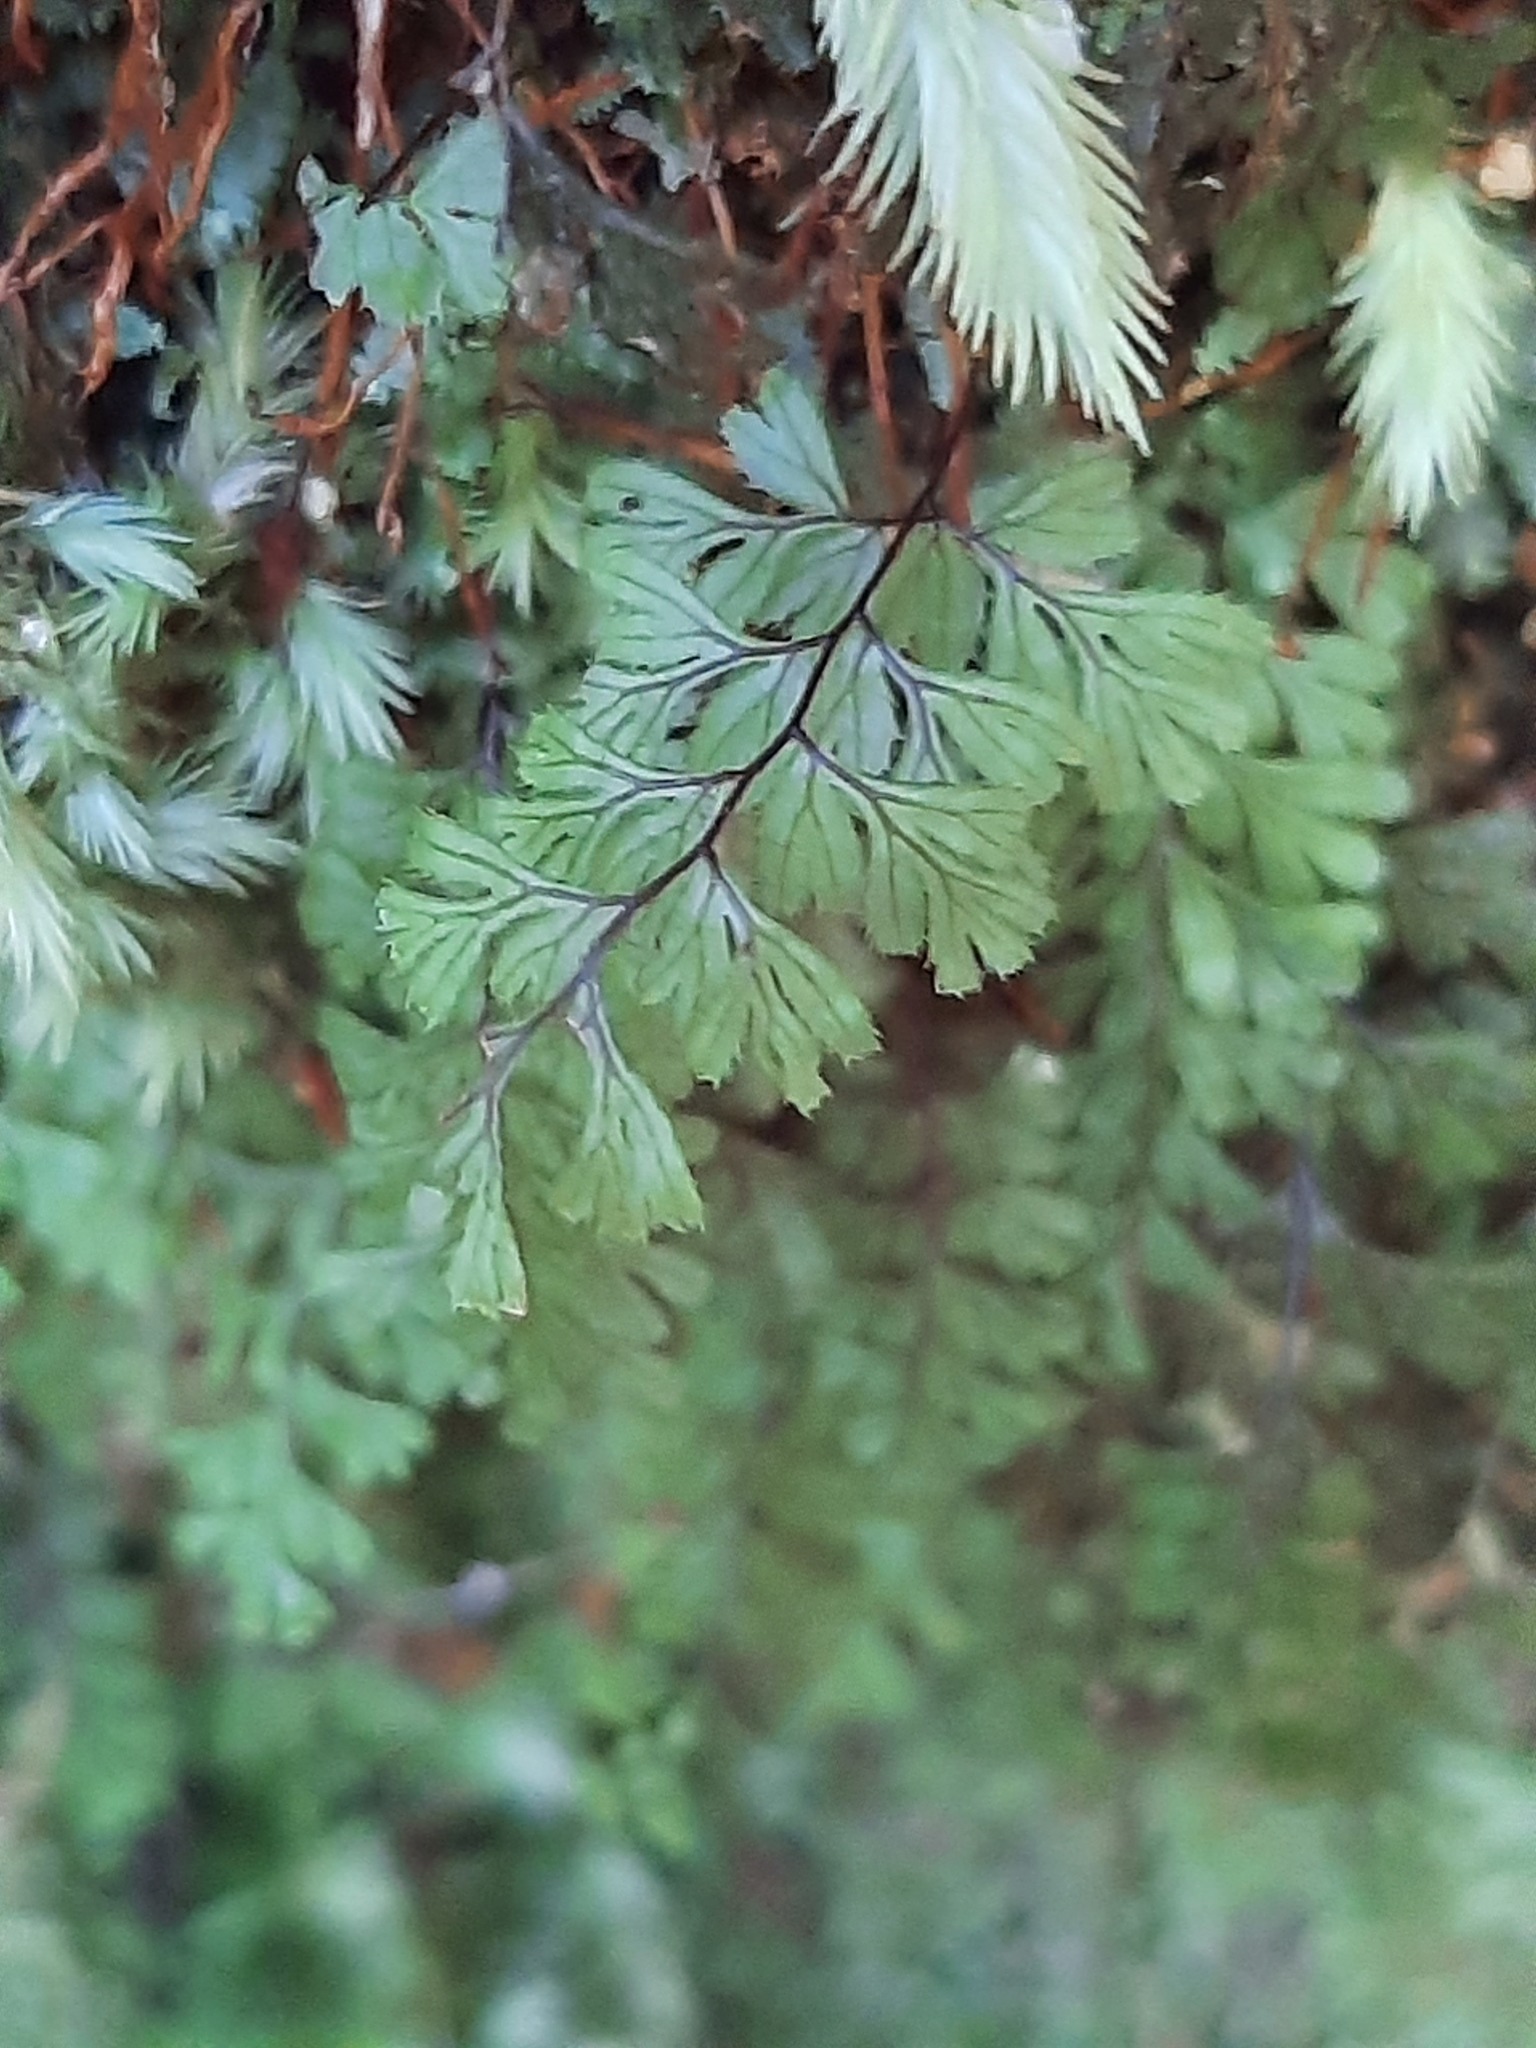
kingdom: Plantae
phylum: Tracheophyta
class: Polypodiopsida
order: Hymenophyllales
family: Hymenophyllaceae
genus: Hymenophyllum
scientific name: Hymenophyllum revolutum
